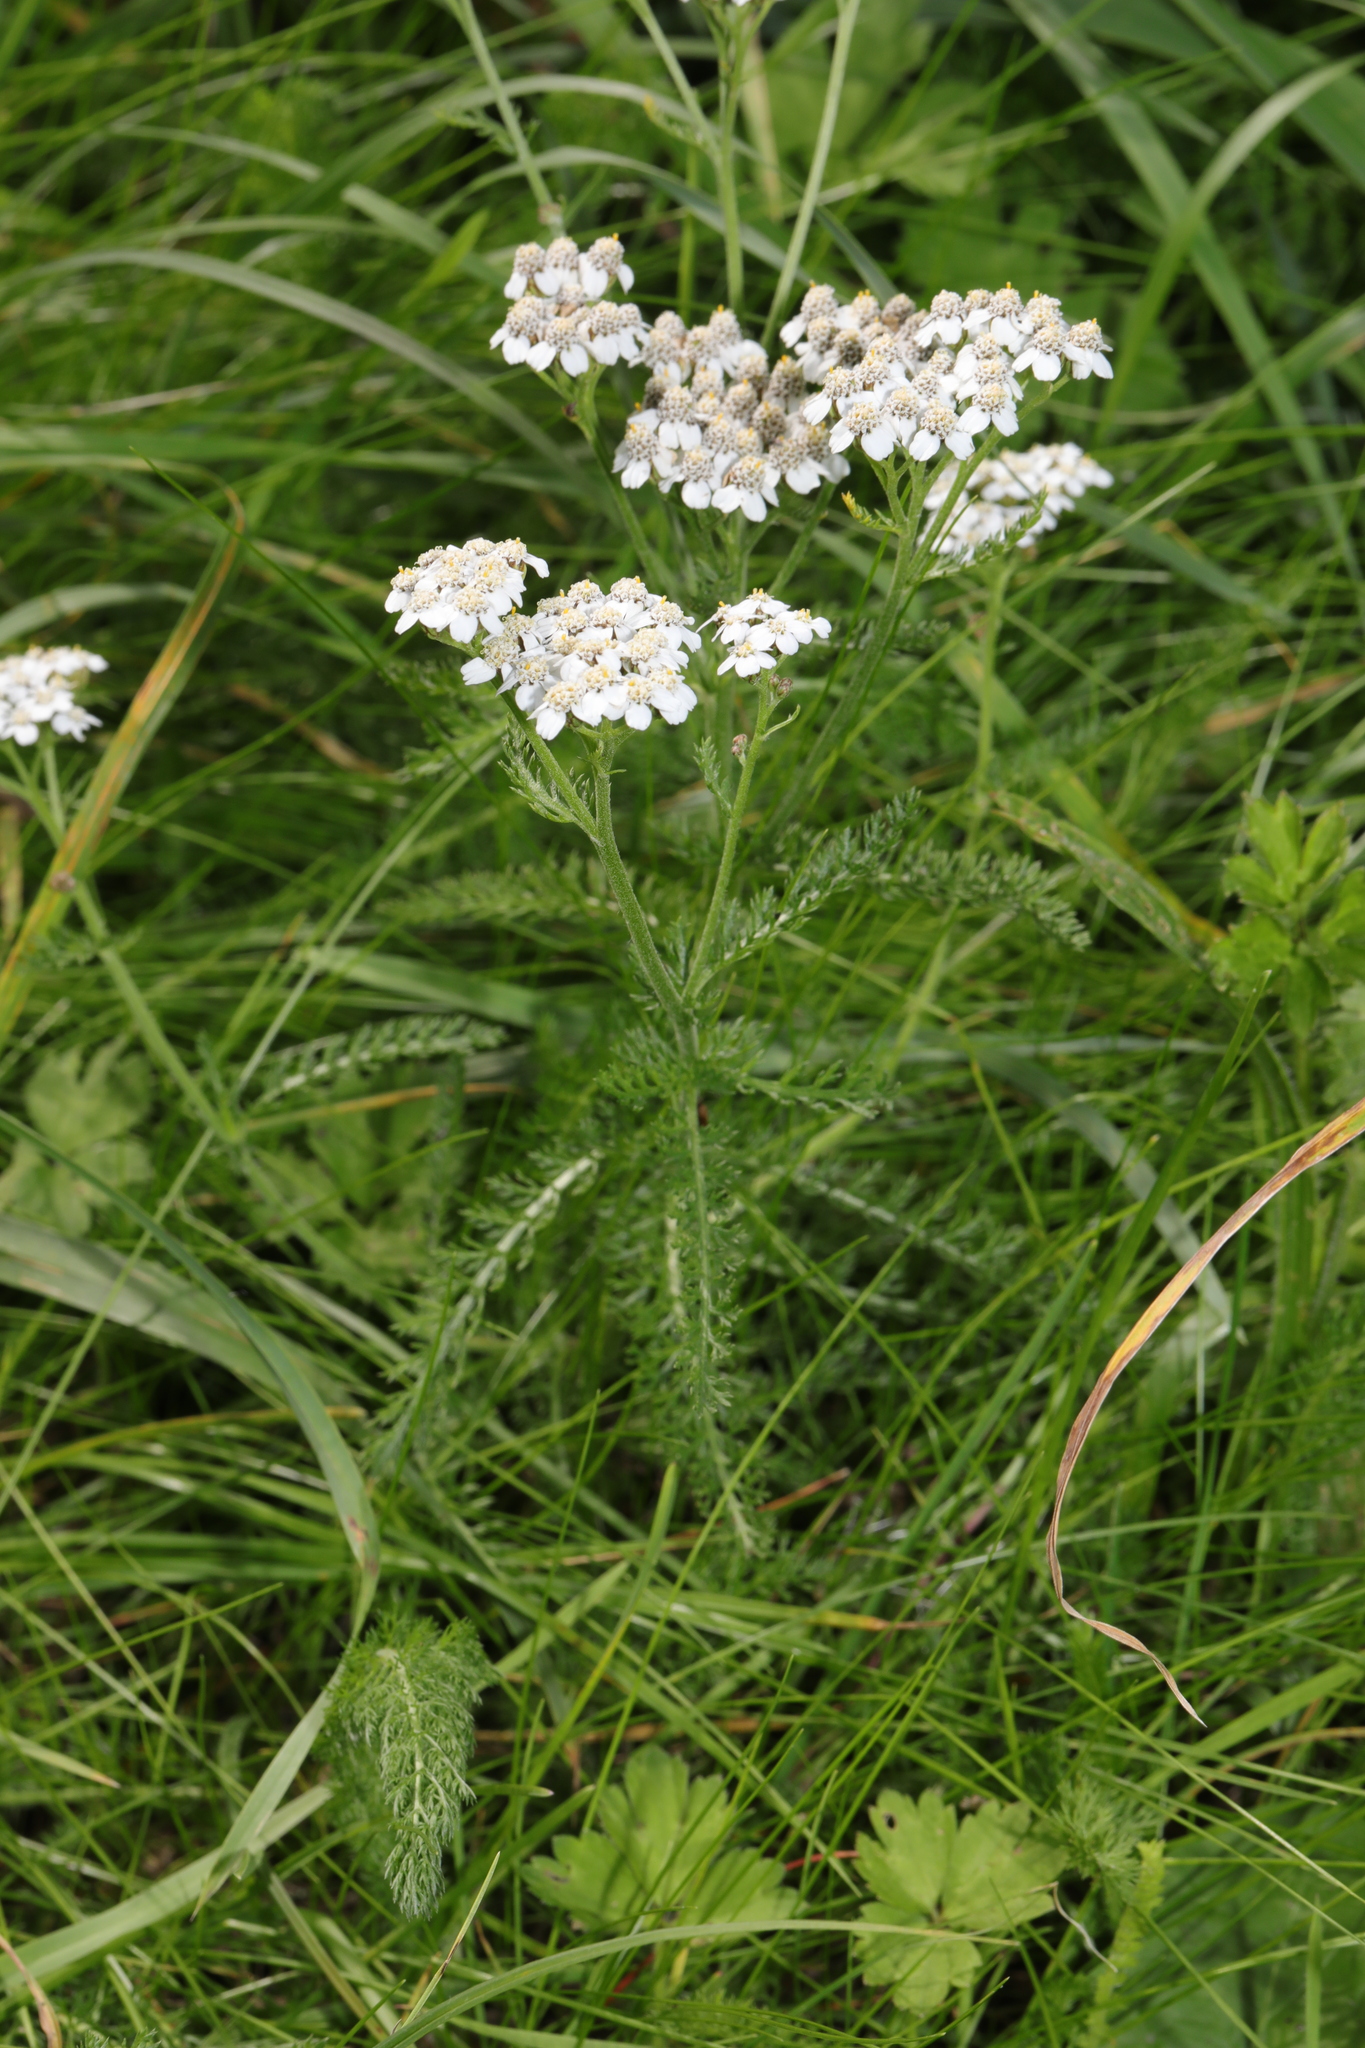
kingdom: Plantae
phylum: Tracheophyta
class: Magnoliopsida
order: Asterales
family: Asteraceae
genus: Achillea
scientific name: Achillea millefolium
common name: Yarrow
